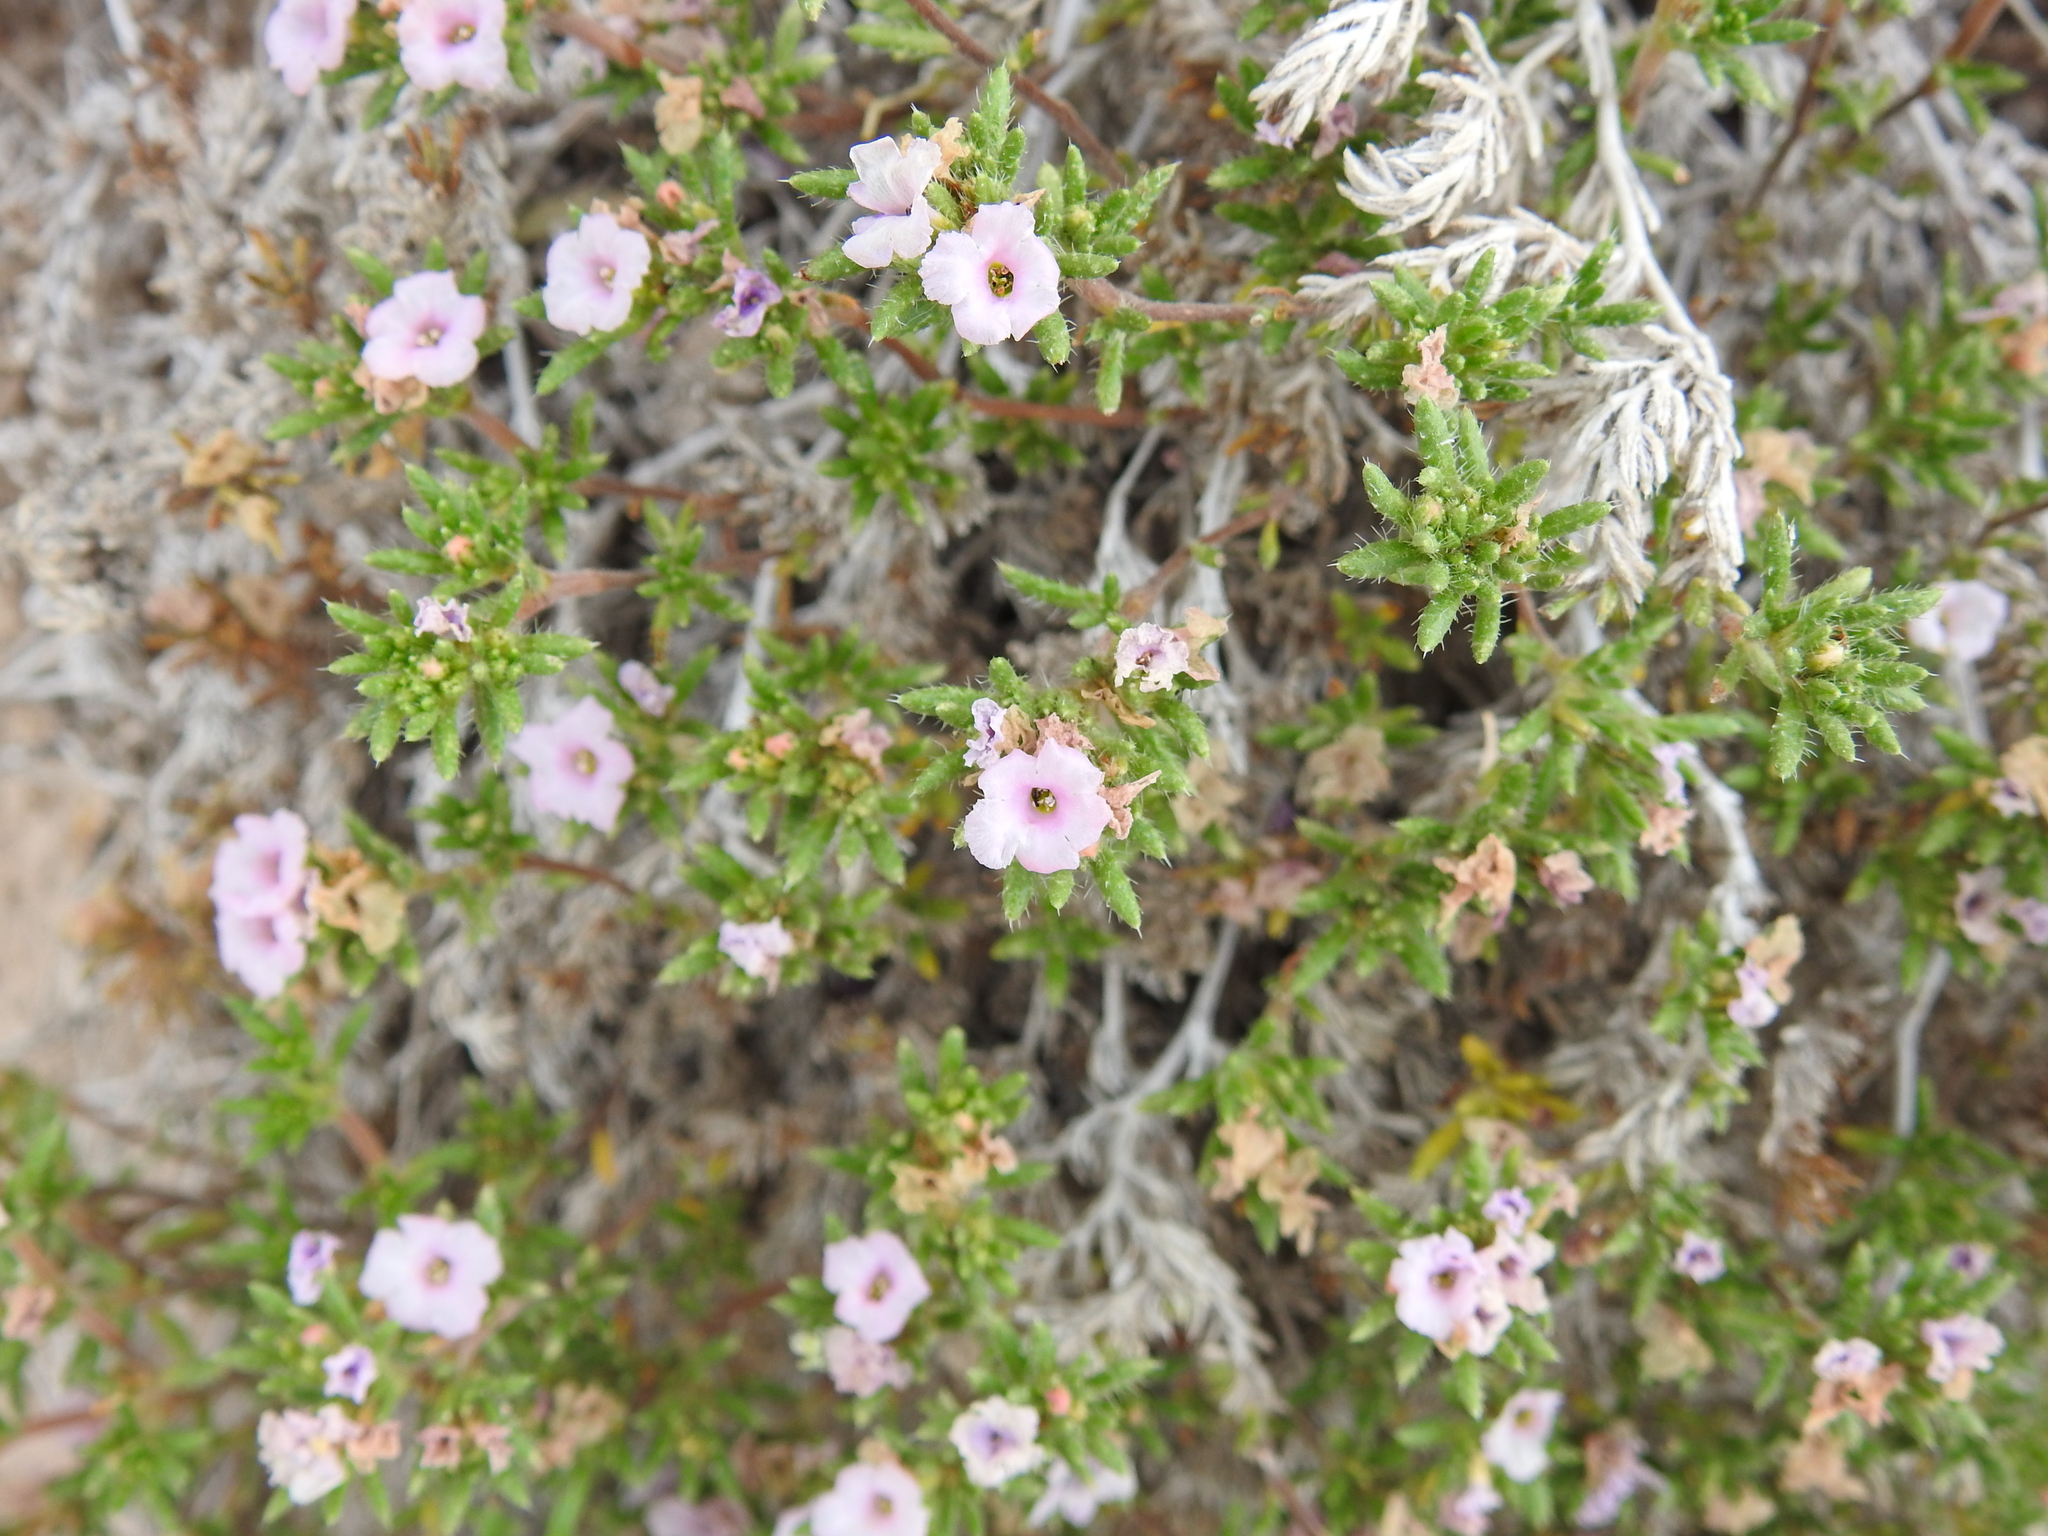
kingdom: Plantae
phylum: Tracheophyta
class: Magnoliopsida
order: Boraginales
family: Ehretiaceae
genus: Tiquilia
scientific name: Tiquilia hispidissima
